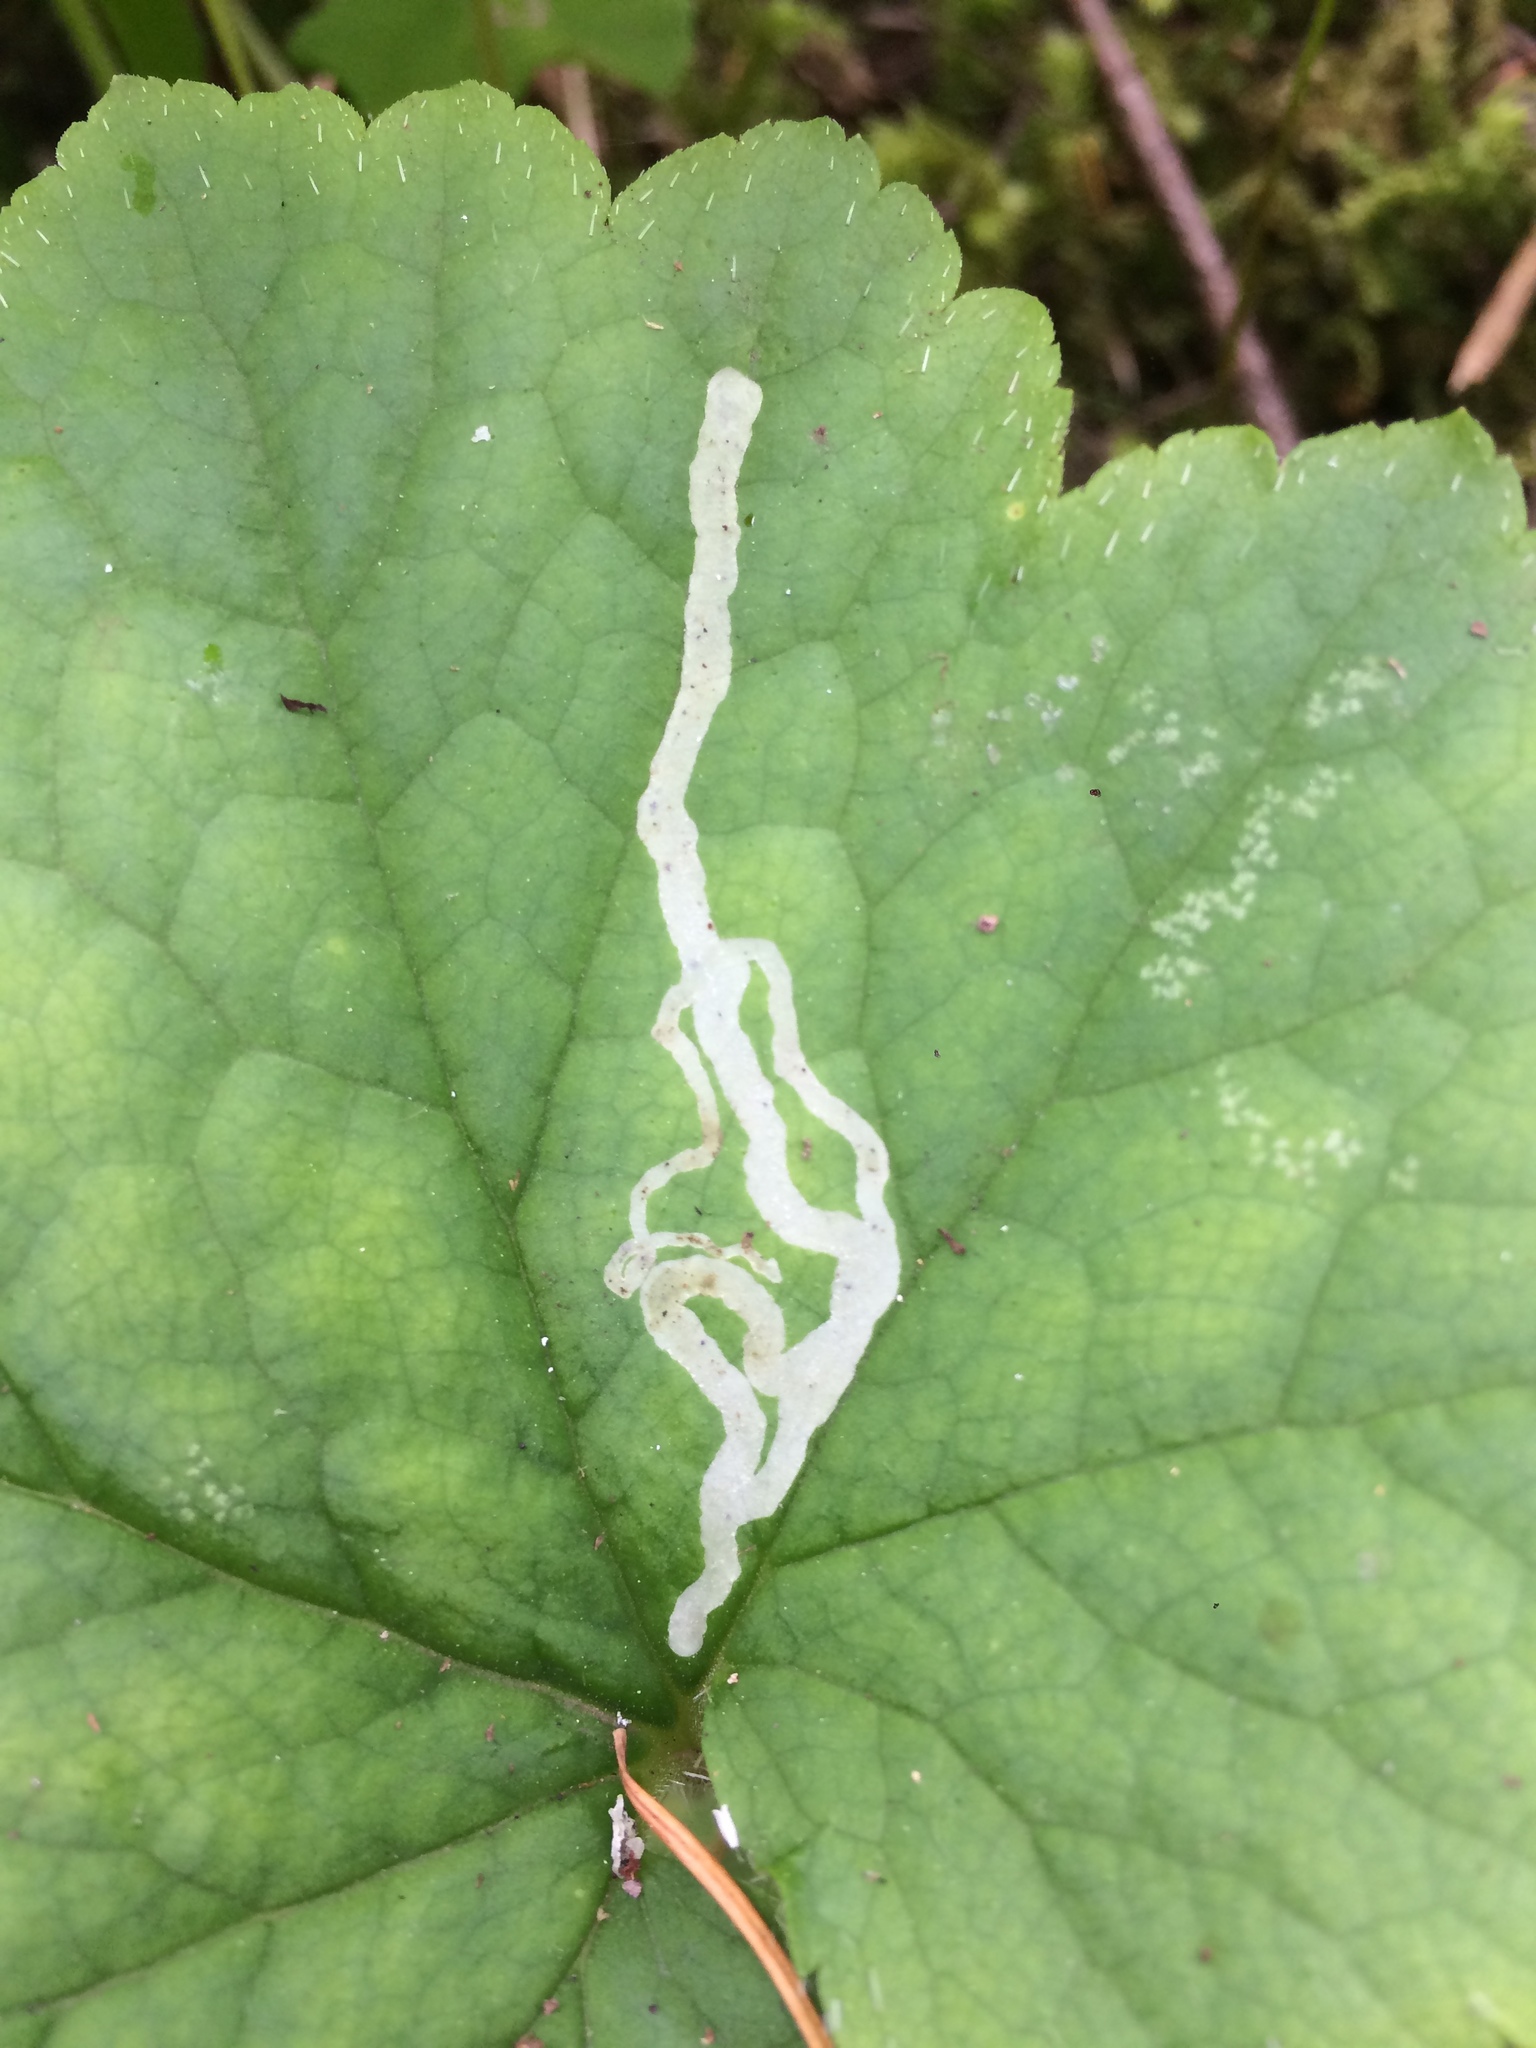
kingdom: Animalia
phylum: Arthropoda
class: Insecta
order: Diptera
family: Agromyzidae
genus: Phytomyza
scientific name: Phytomyza tiarellae
